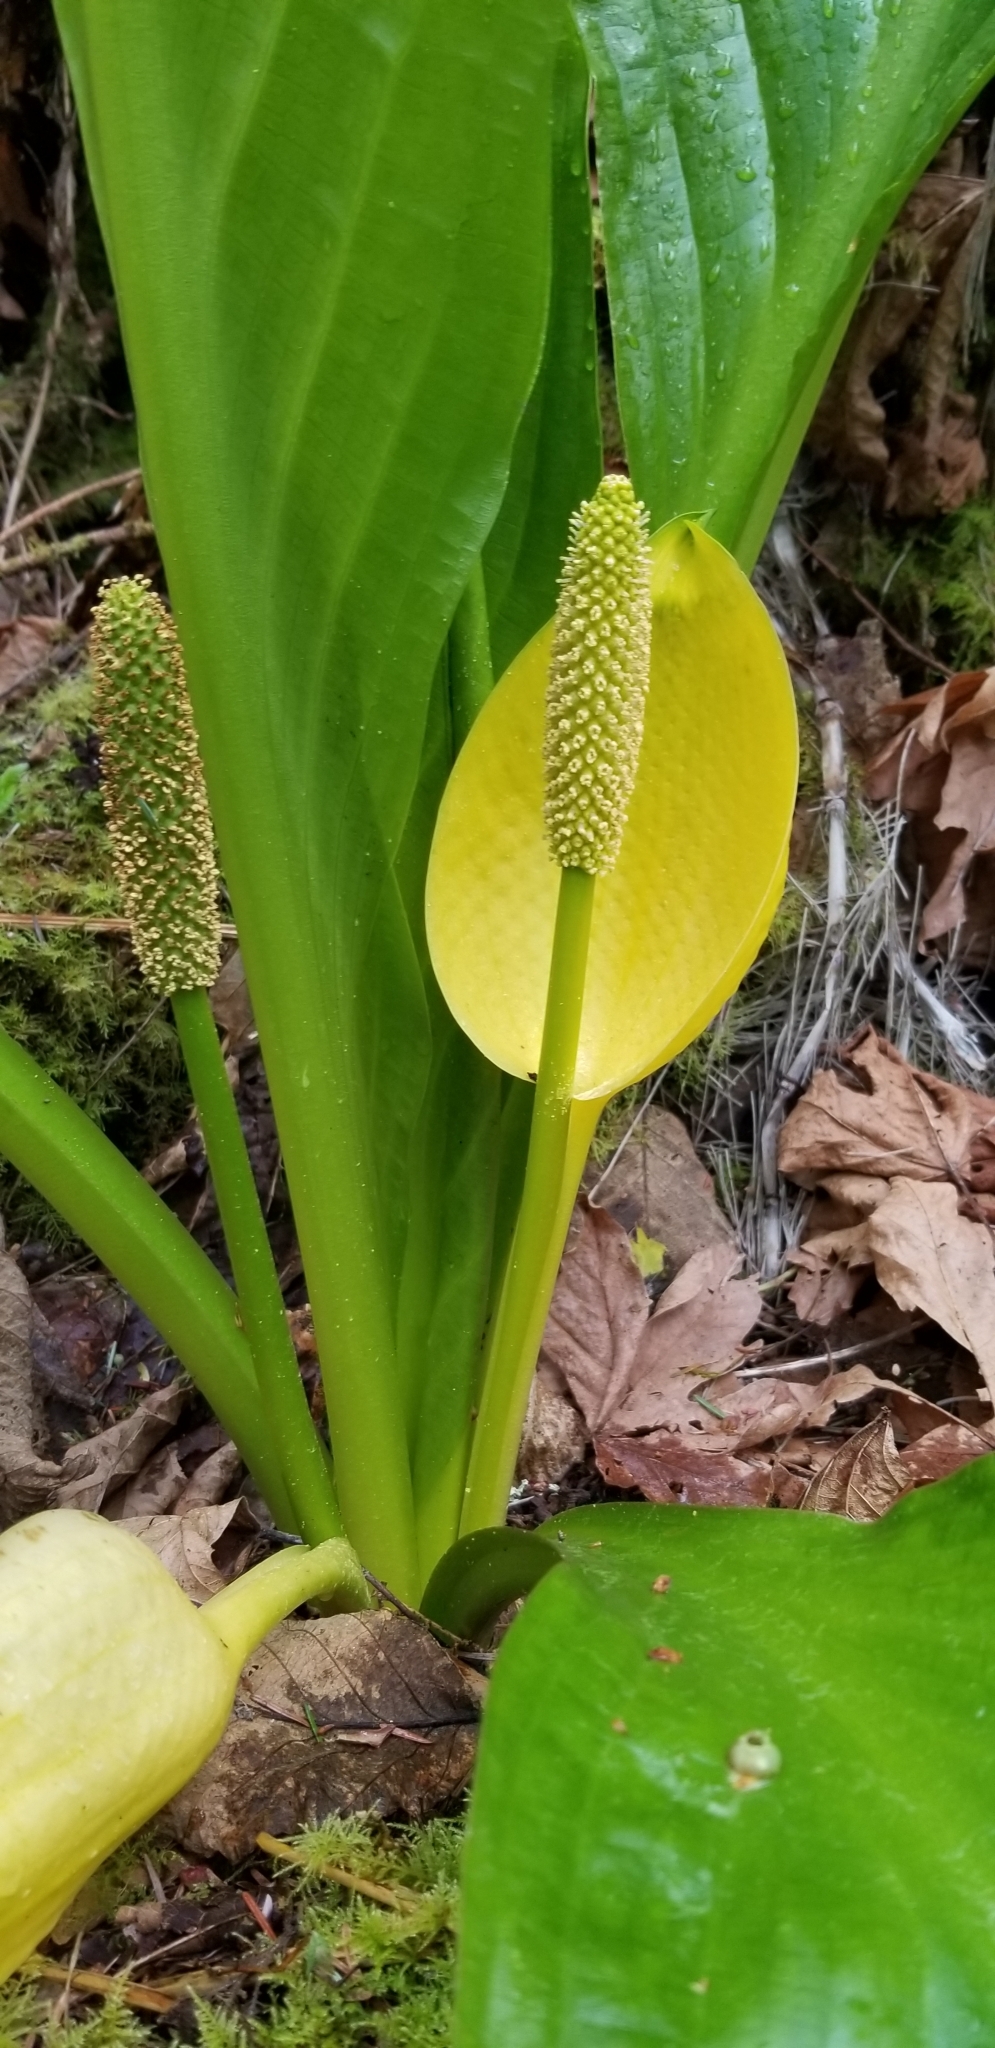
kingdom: Plantae
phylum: Tracheophyta
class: Liliopsida
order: Alismatales
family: Araceae
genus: Lysichiton
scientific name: Lysichiton americanus
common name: American skunk cabbage
